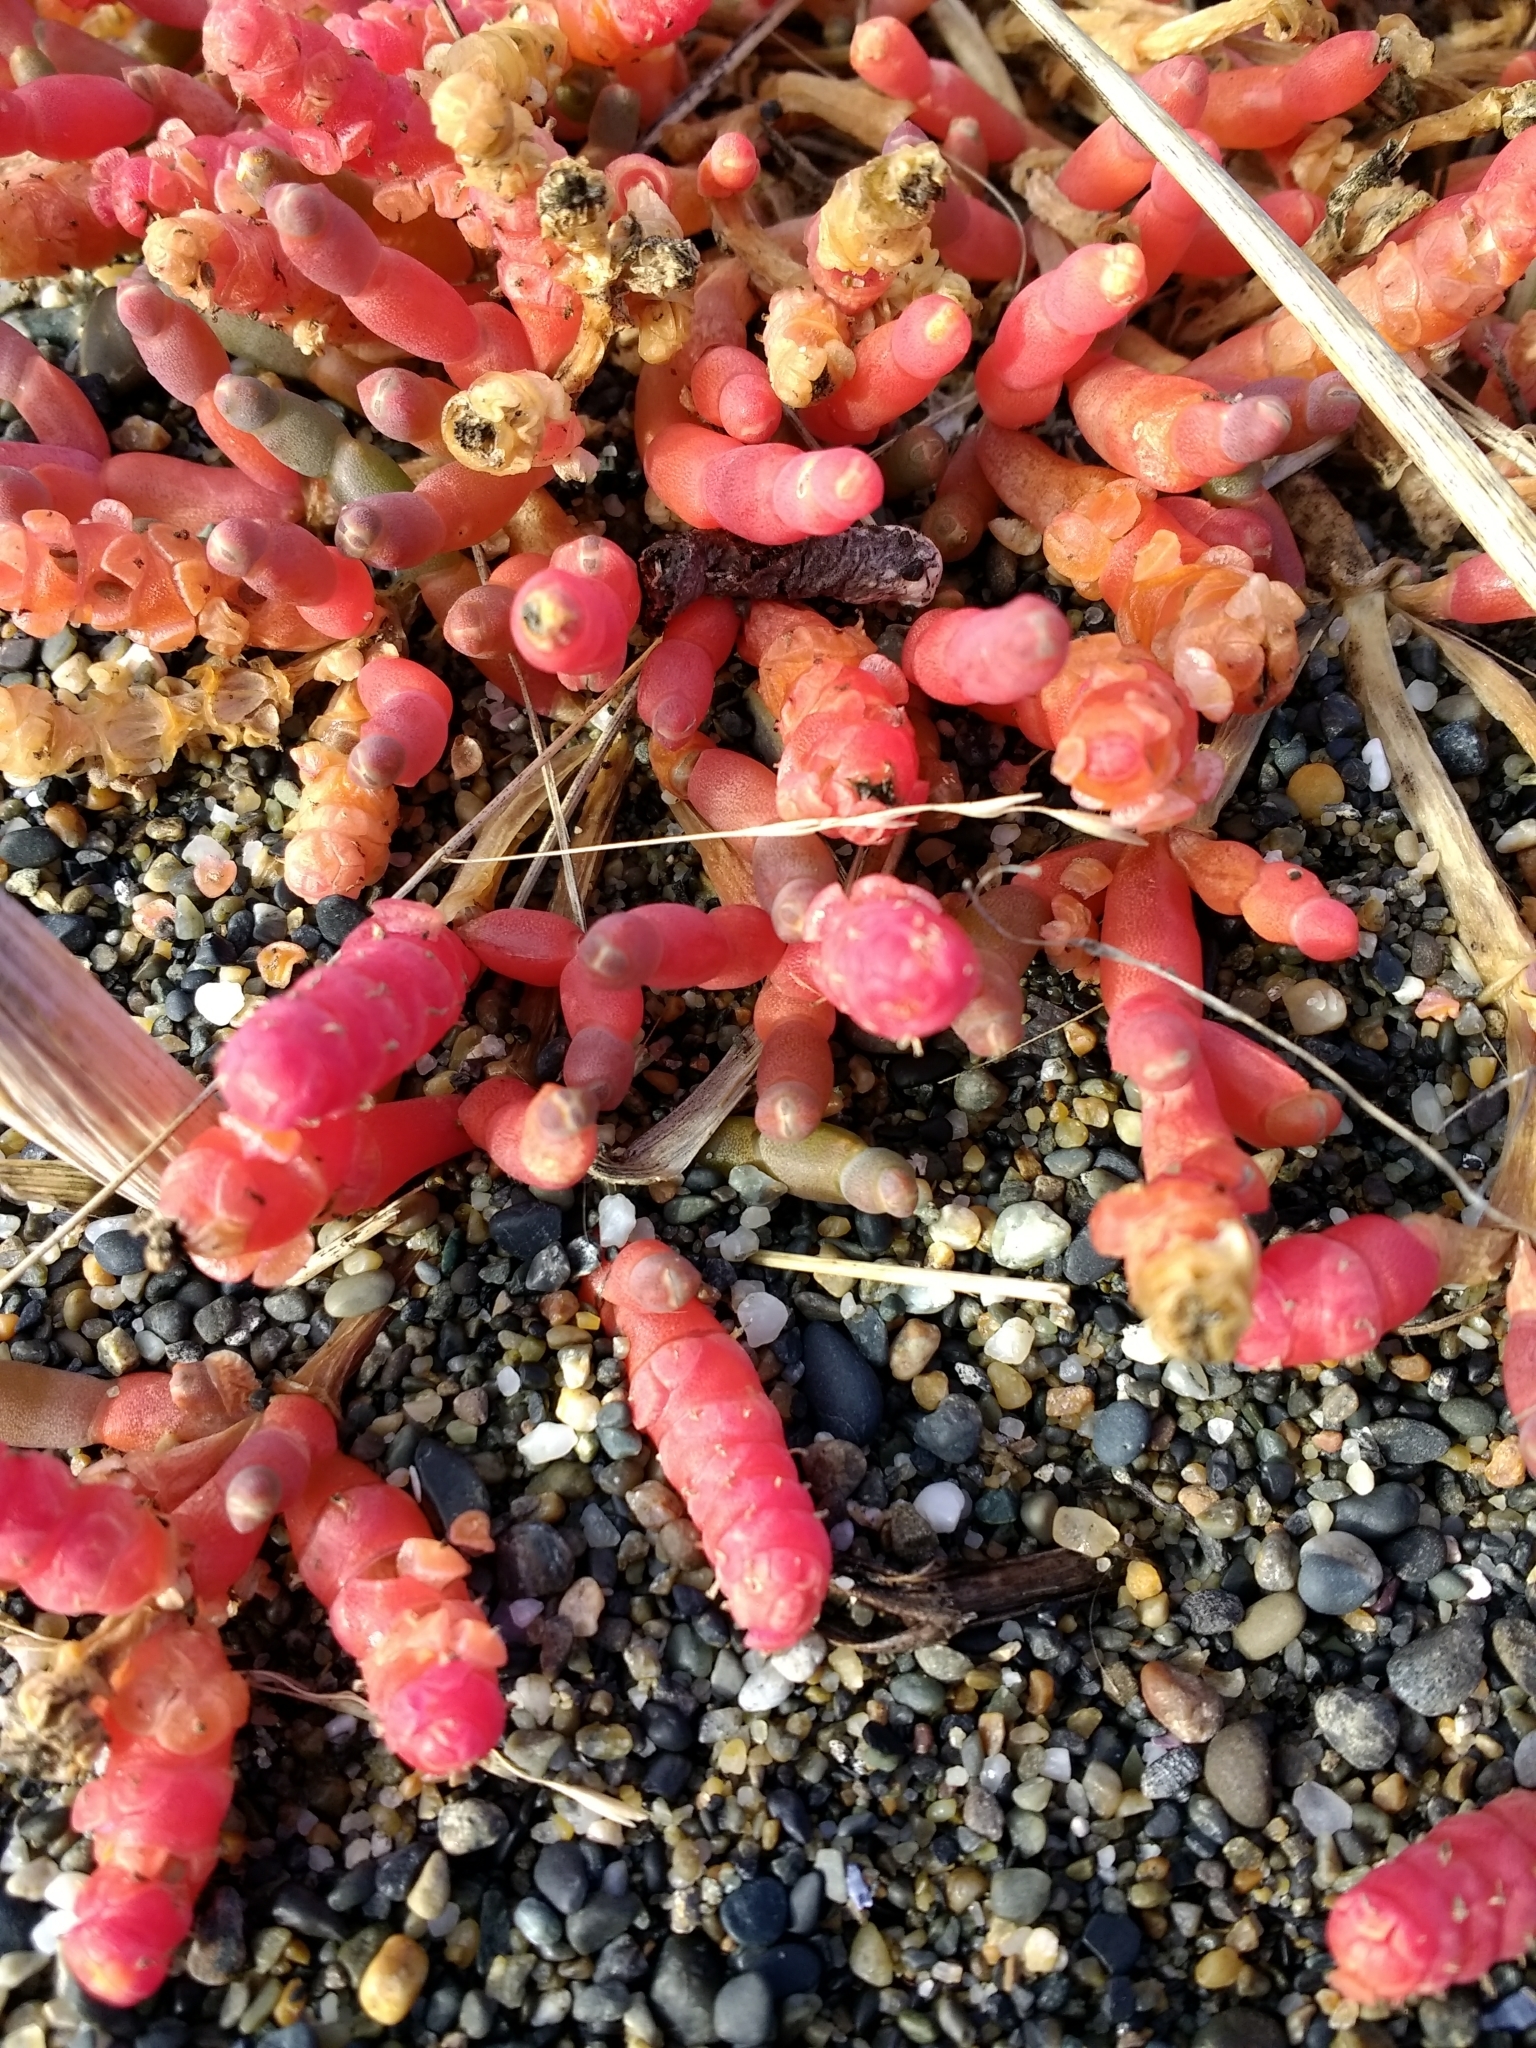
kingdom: Plantae
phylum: Tracheophyta
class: Magnoliopsida
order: Caryophyllales
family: Amaranthaceae
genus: Salicornia
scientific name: Salicornia magellanica
